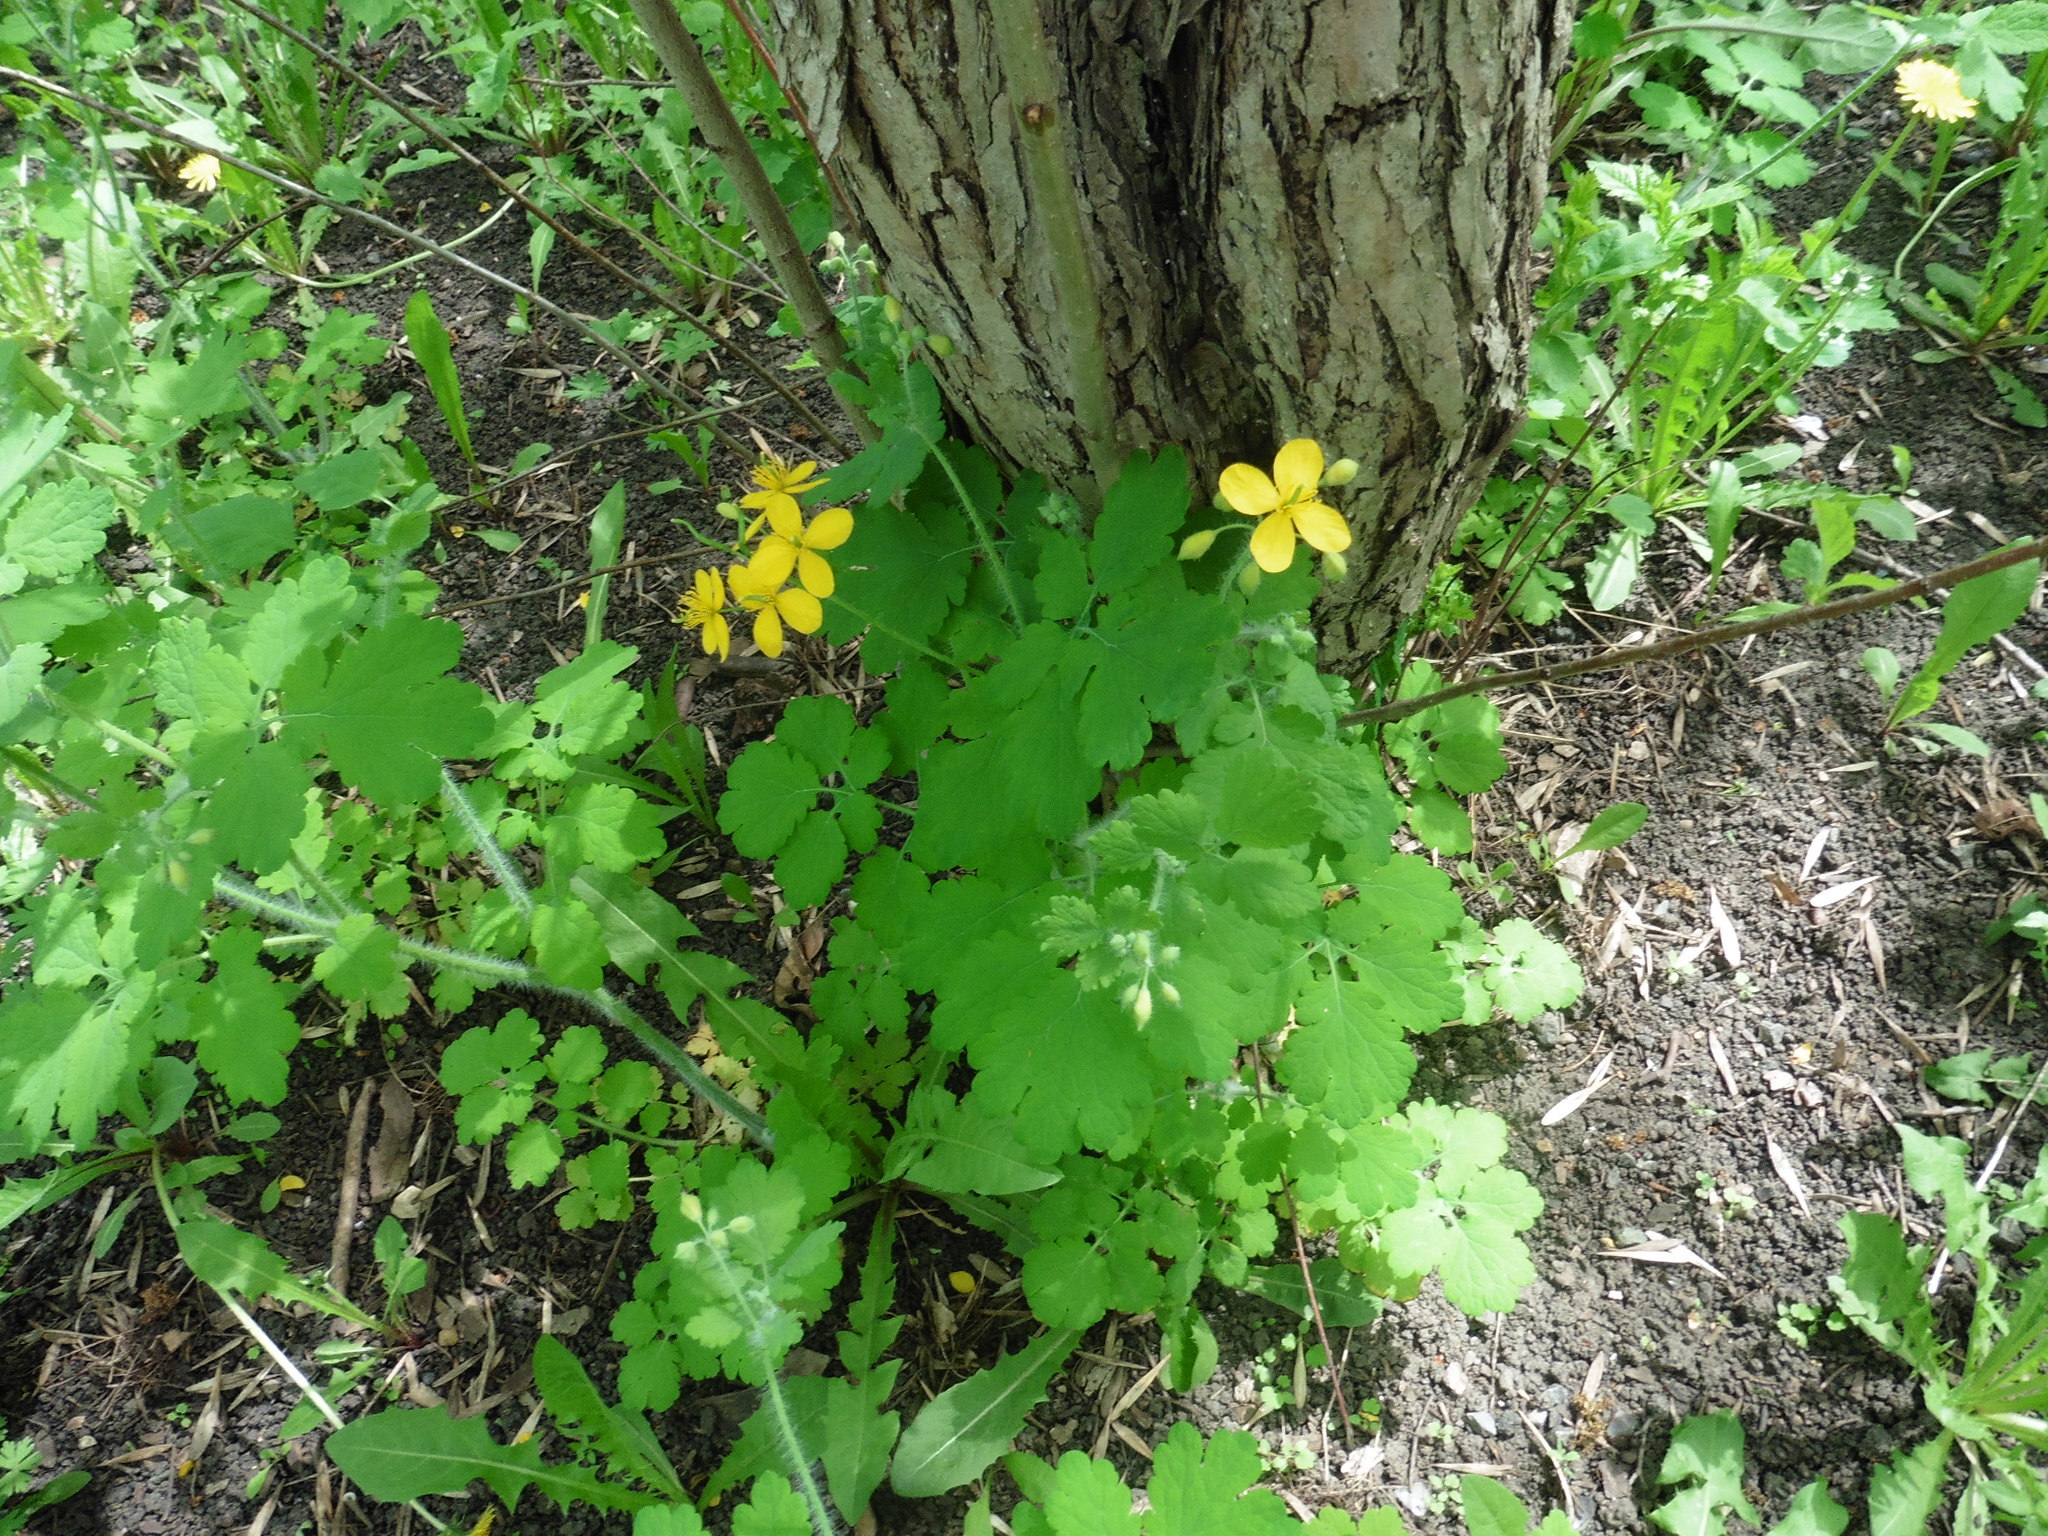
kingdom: Plantae
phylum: Tracheophyta
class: Magnoliopsida
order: Ranunculales
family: Papaveraceae
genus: Chelidonium
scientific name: Chelidonium majus
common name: Greater celandine
